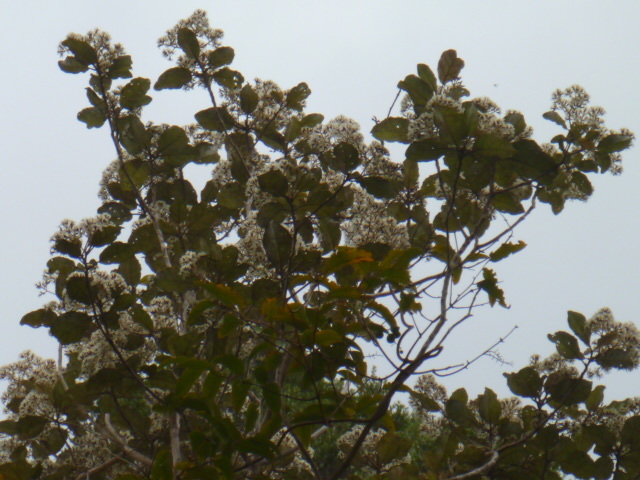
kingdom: Plantae
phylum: Tracheophyta
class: Magnoliopsida
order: Asterales
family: Asteraceae
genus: Olearia
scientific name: Olearia rani
